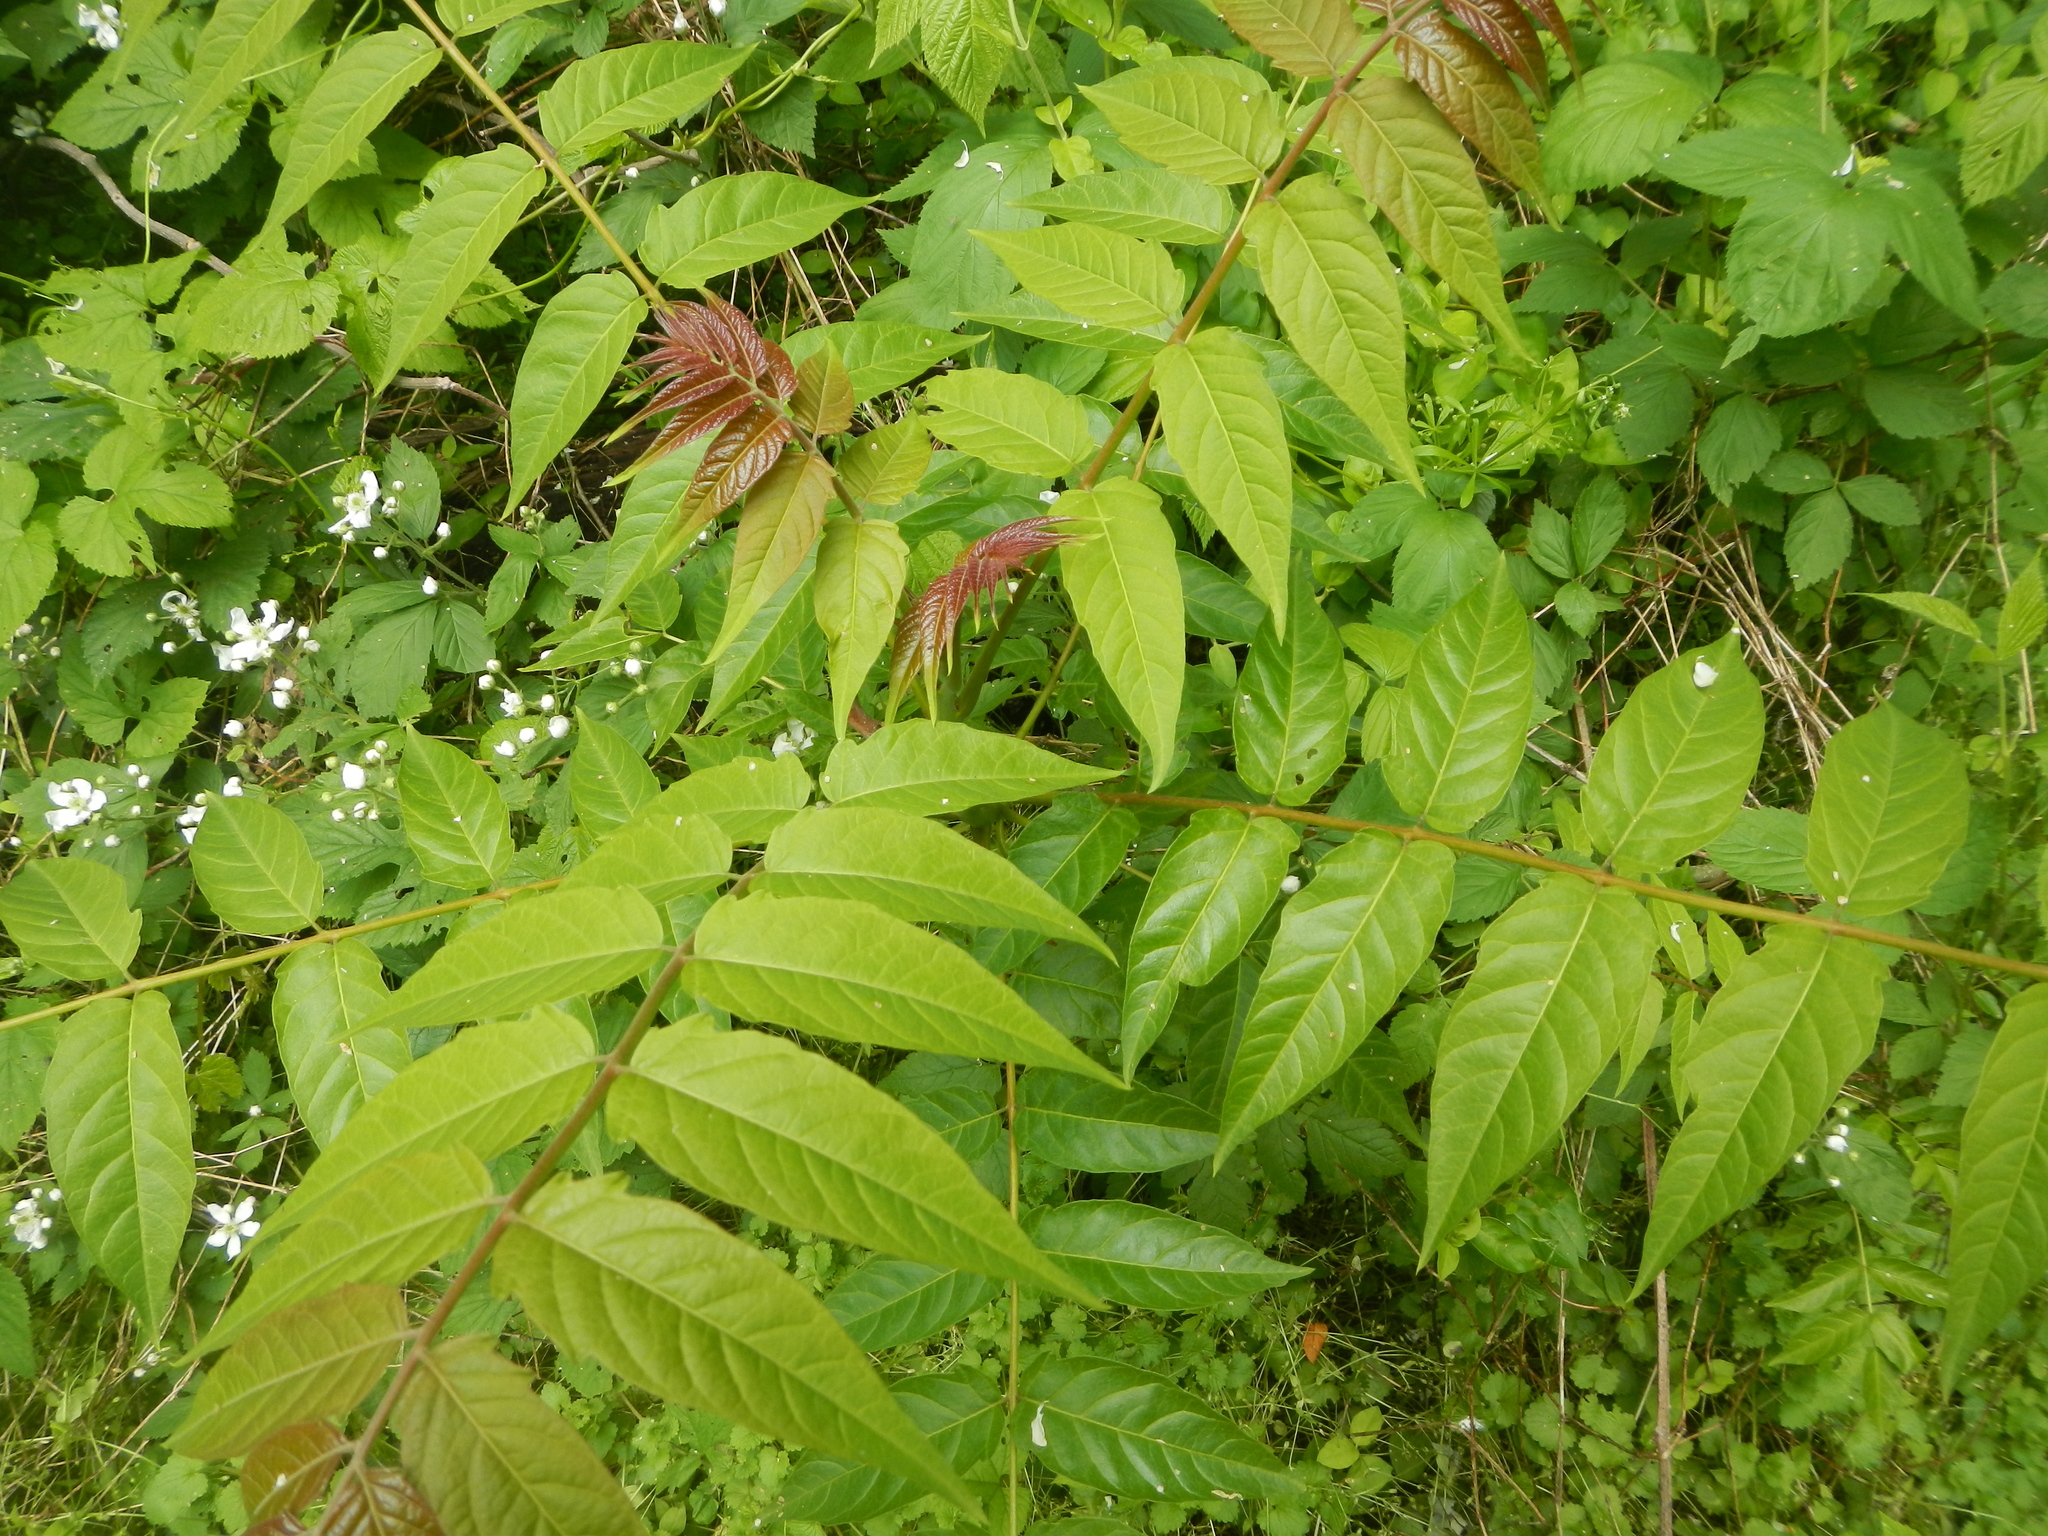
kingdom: Plantae
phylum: Tracheophyta
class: Magnoliopsida
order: Sapindales
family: Simaroubaceae
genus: Ailanthus
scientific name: Ailanthus altissima
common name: Tree-of-heaven
